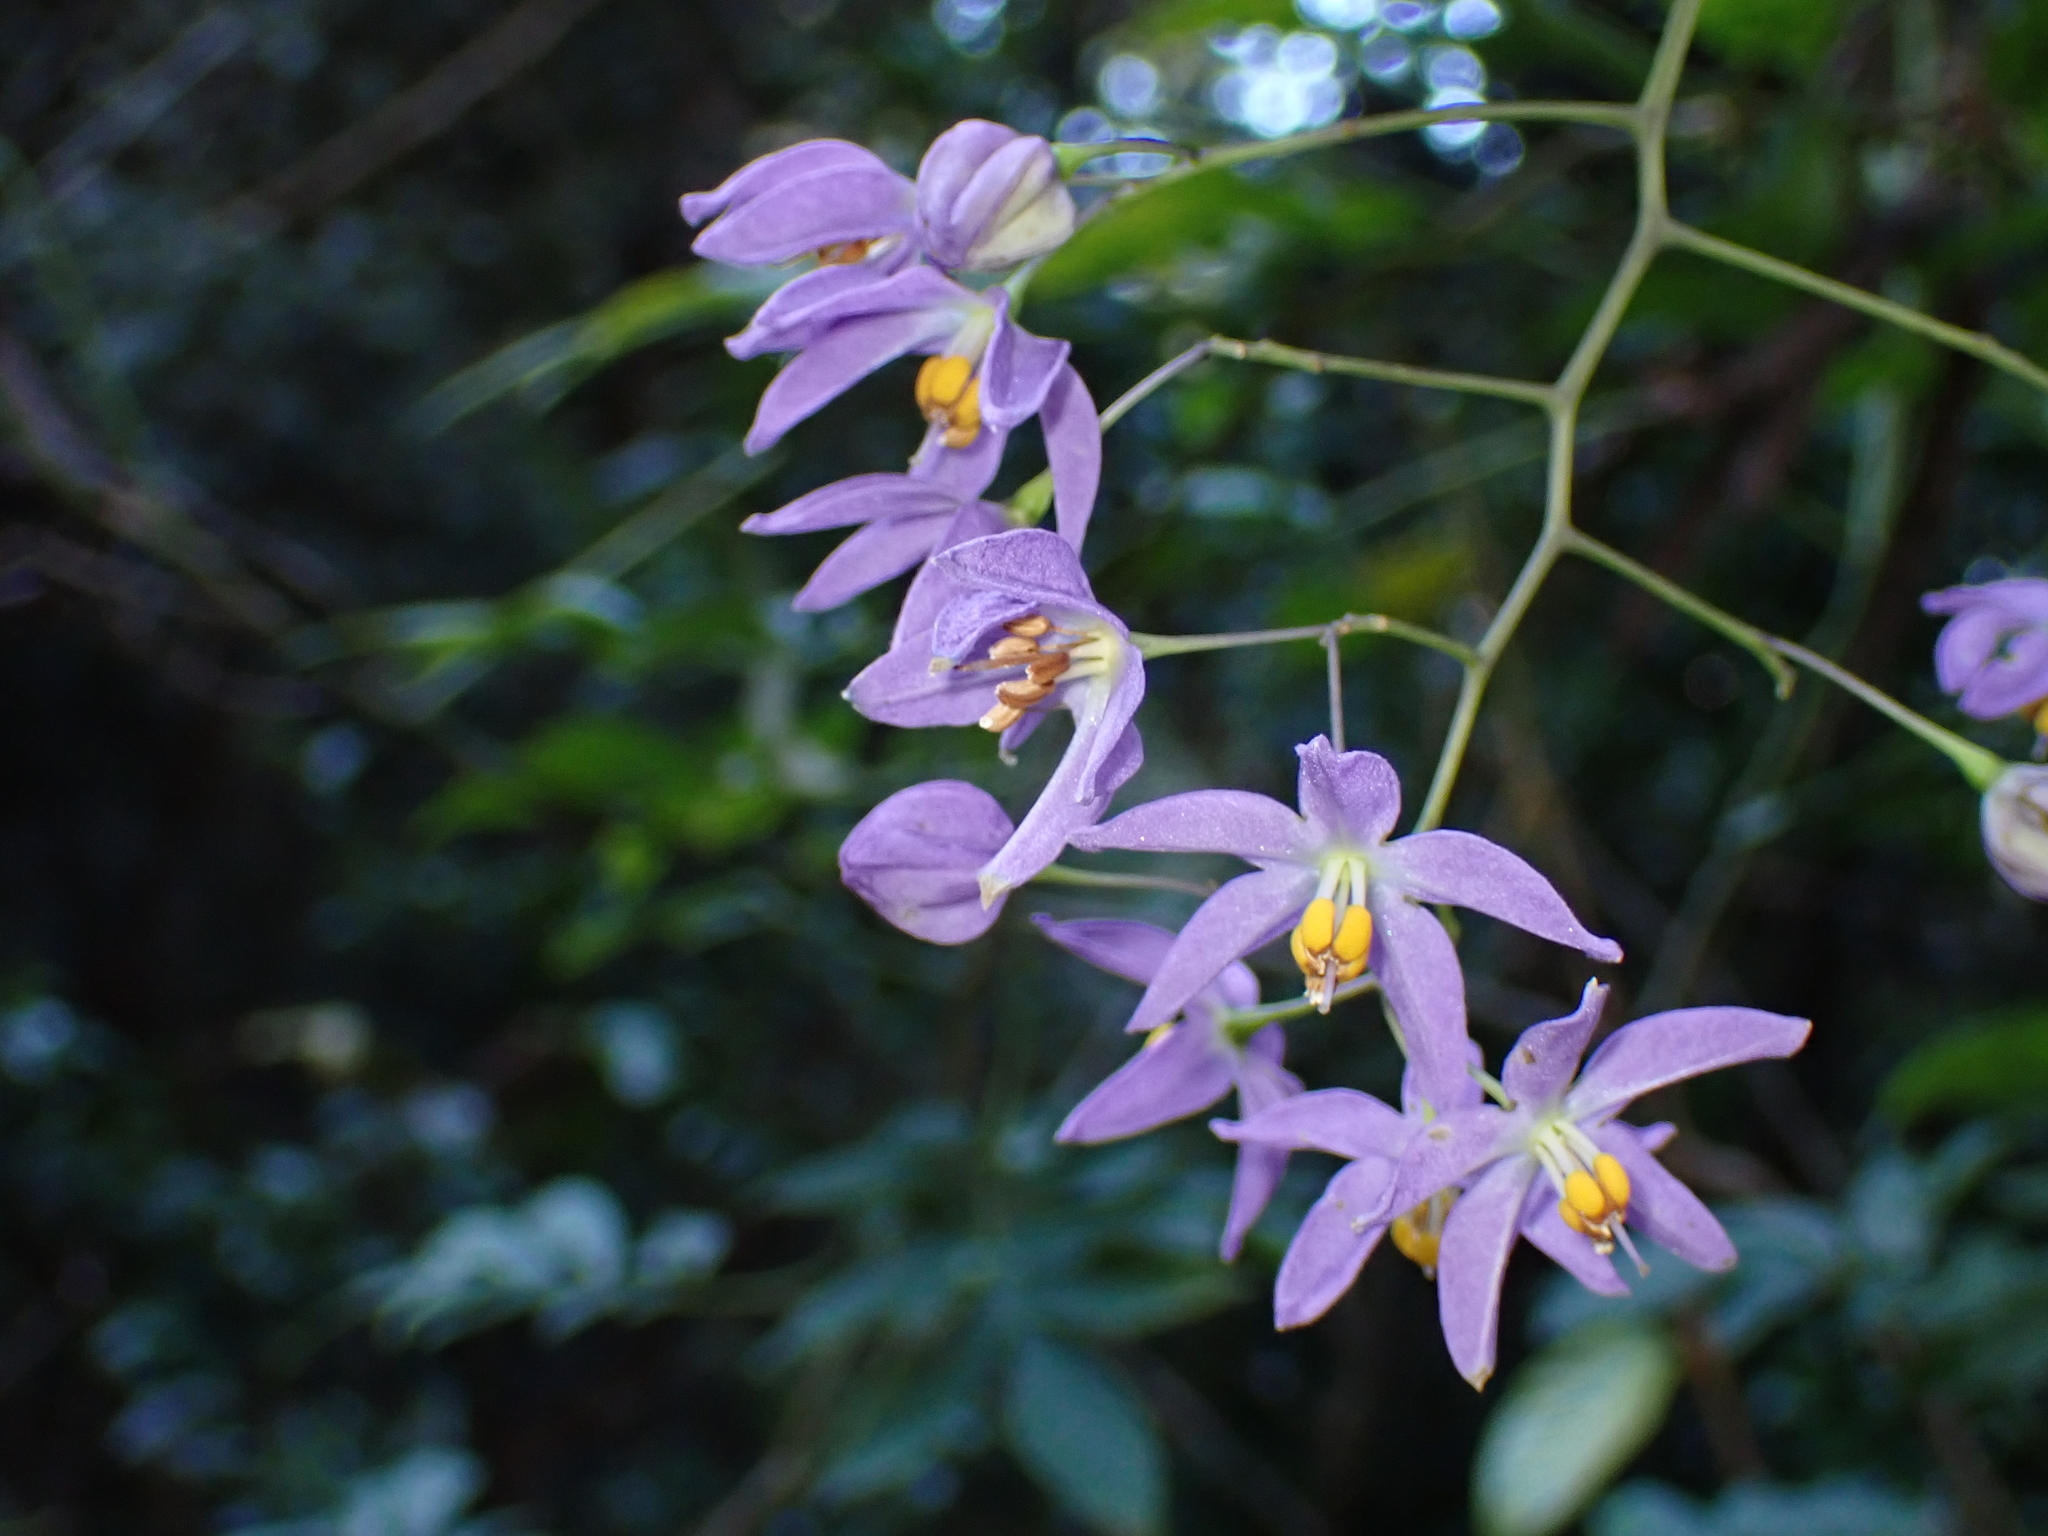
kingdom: Plantae
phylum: Tracheophyta
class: Magnoliopsida
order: Solanales
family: Solanaceae
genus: Solanum
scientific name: Solanum seaforthianum
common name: Brazilian nightshade
